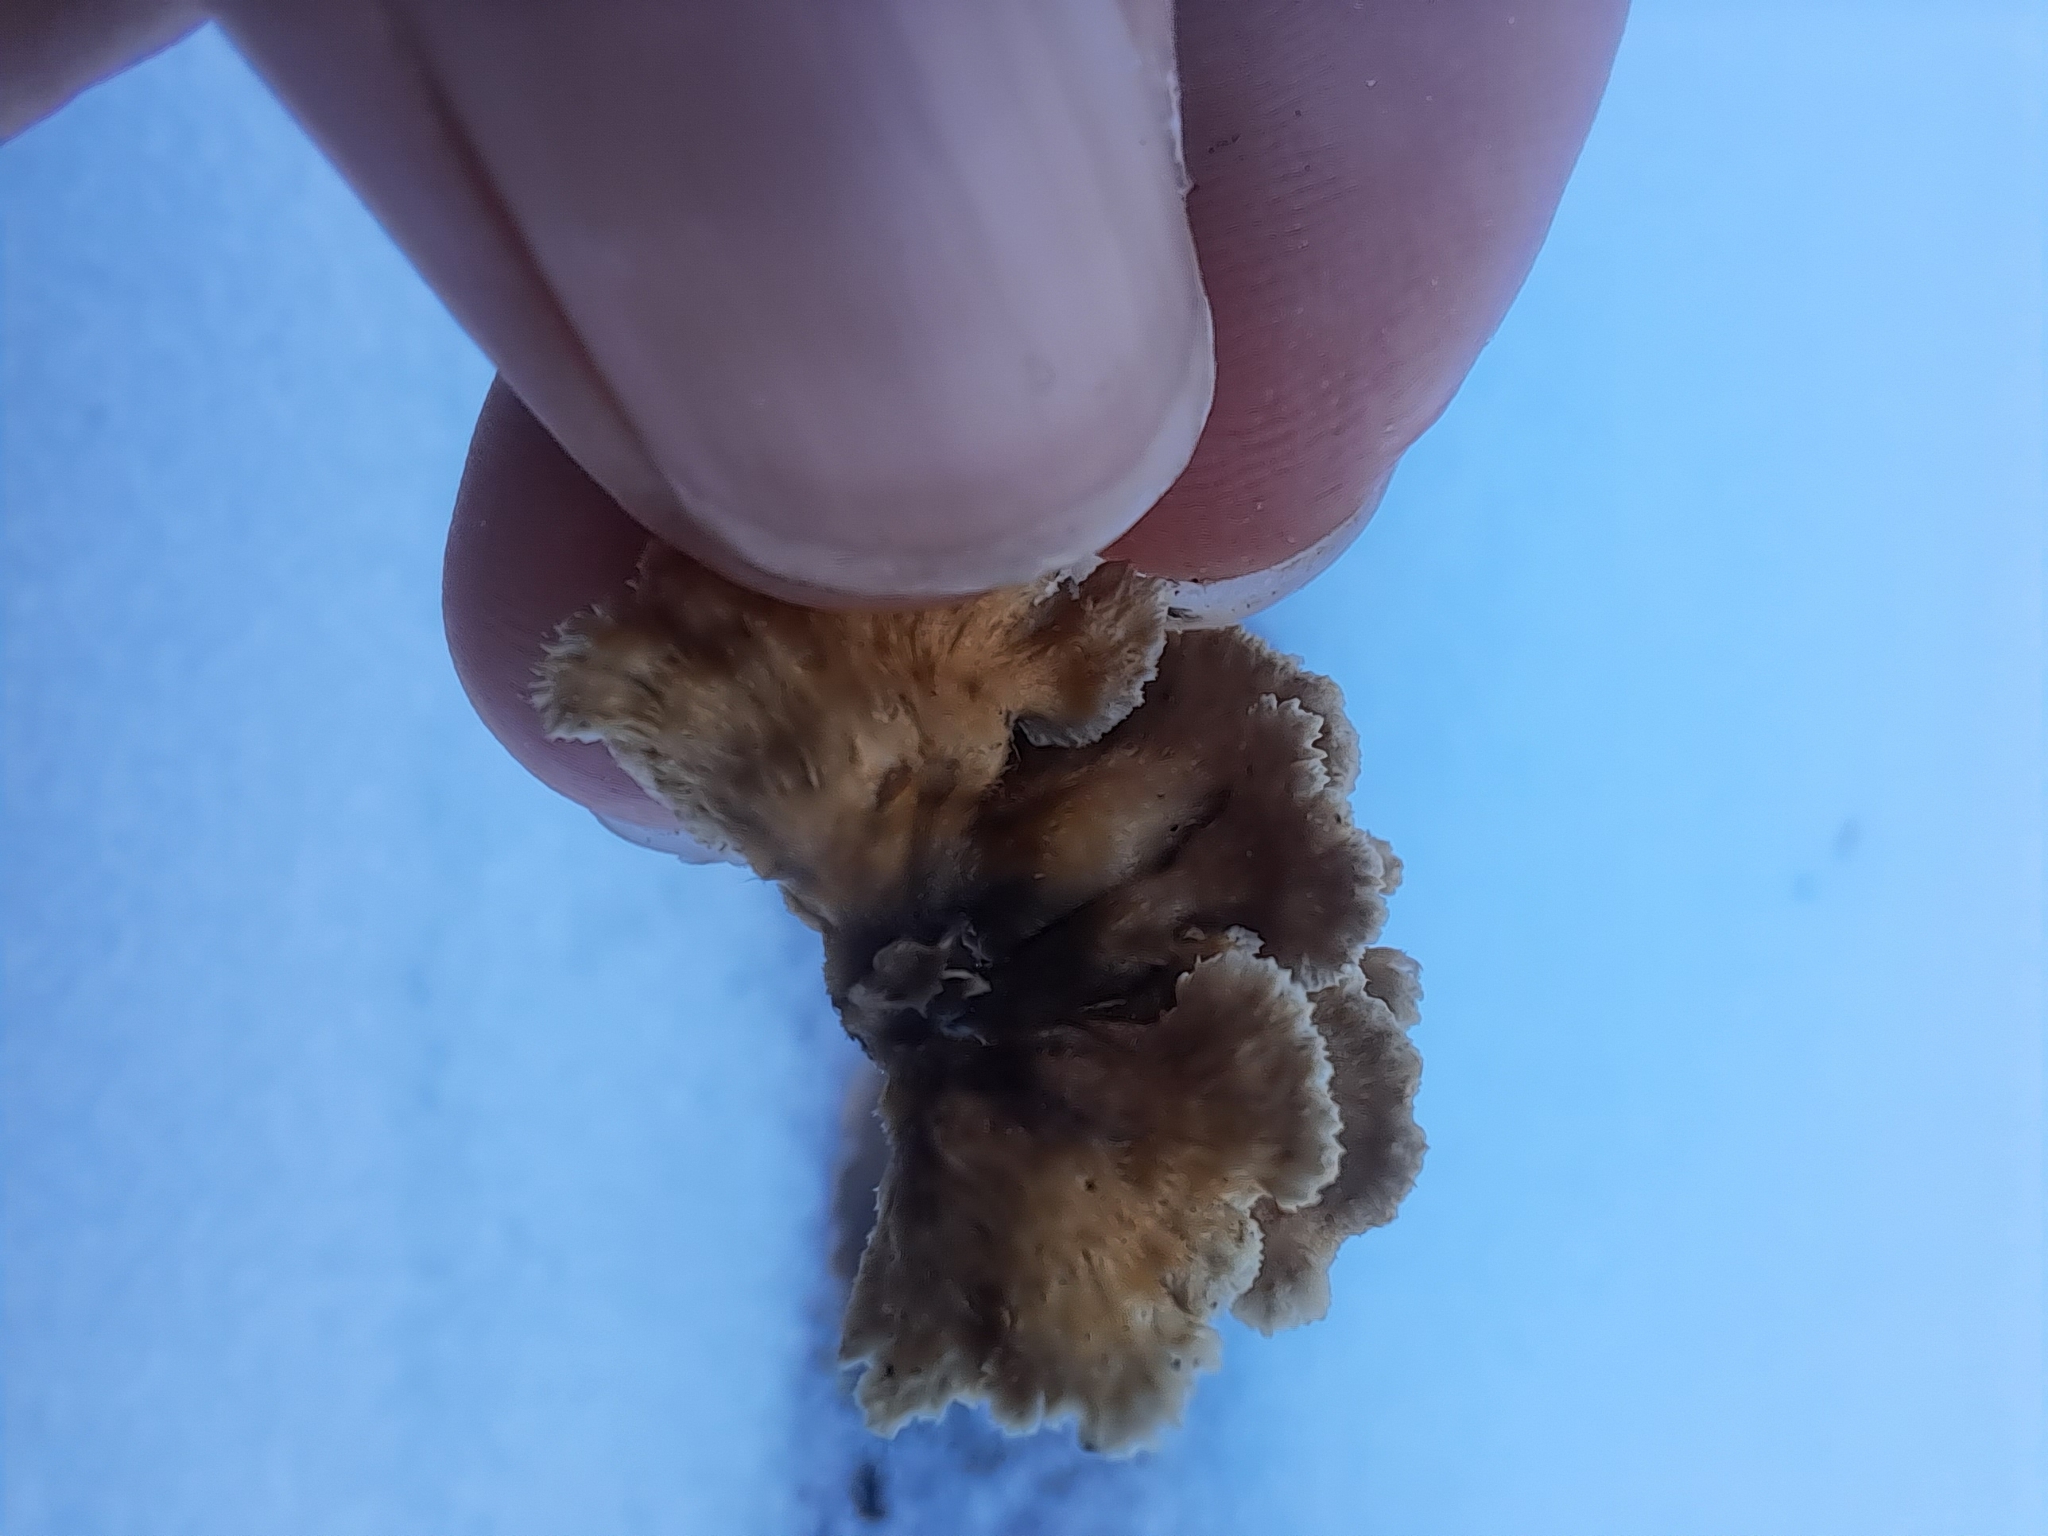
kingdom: Fungi
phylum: Basidiomycota
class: Agaricomycetes
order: Amylocorticiales
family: Amylocorticiaceae
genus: Plicaturopsis
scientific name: Plicaturopsis crispa
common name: Crimped gill
